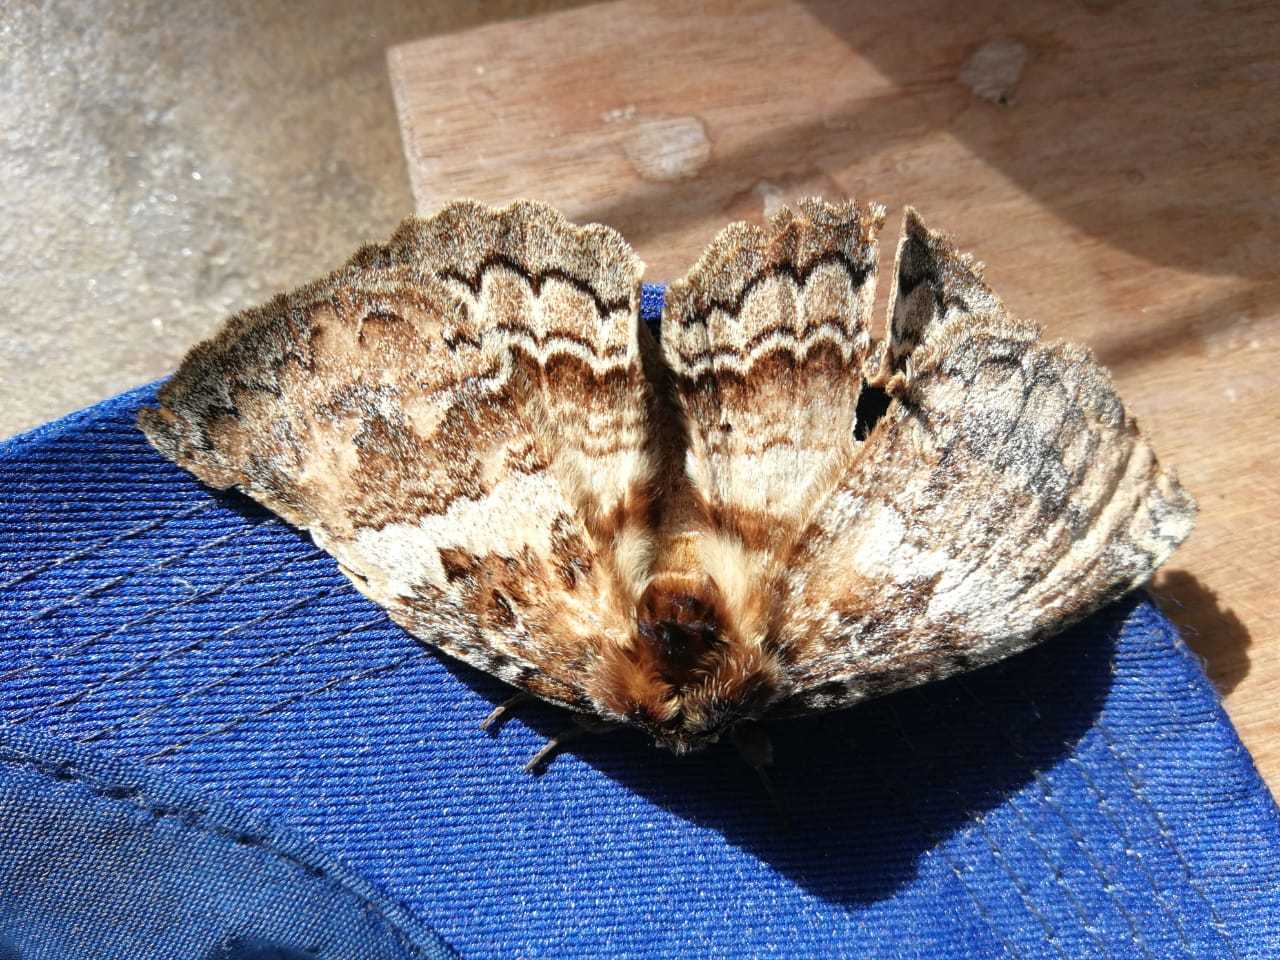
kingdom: Animalia
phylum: Arthropoda
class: Insecta
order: Lepidoptera
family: Eupterotidae
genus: Striphnopteryx
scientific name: Striphnopteryx edulis
